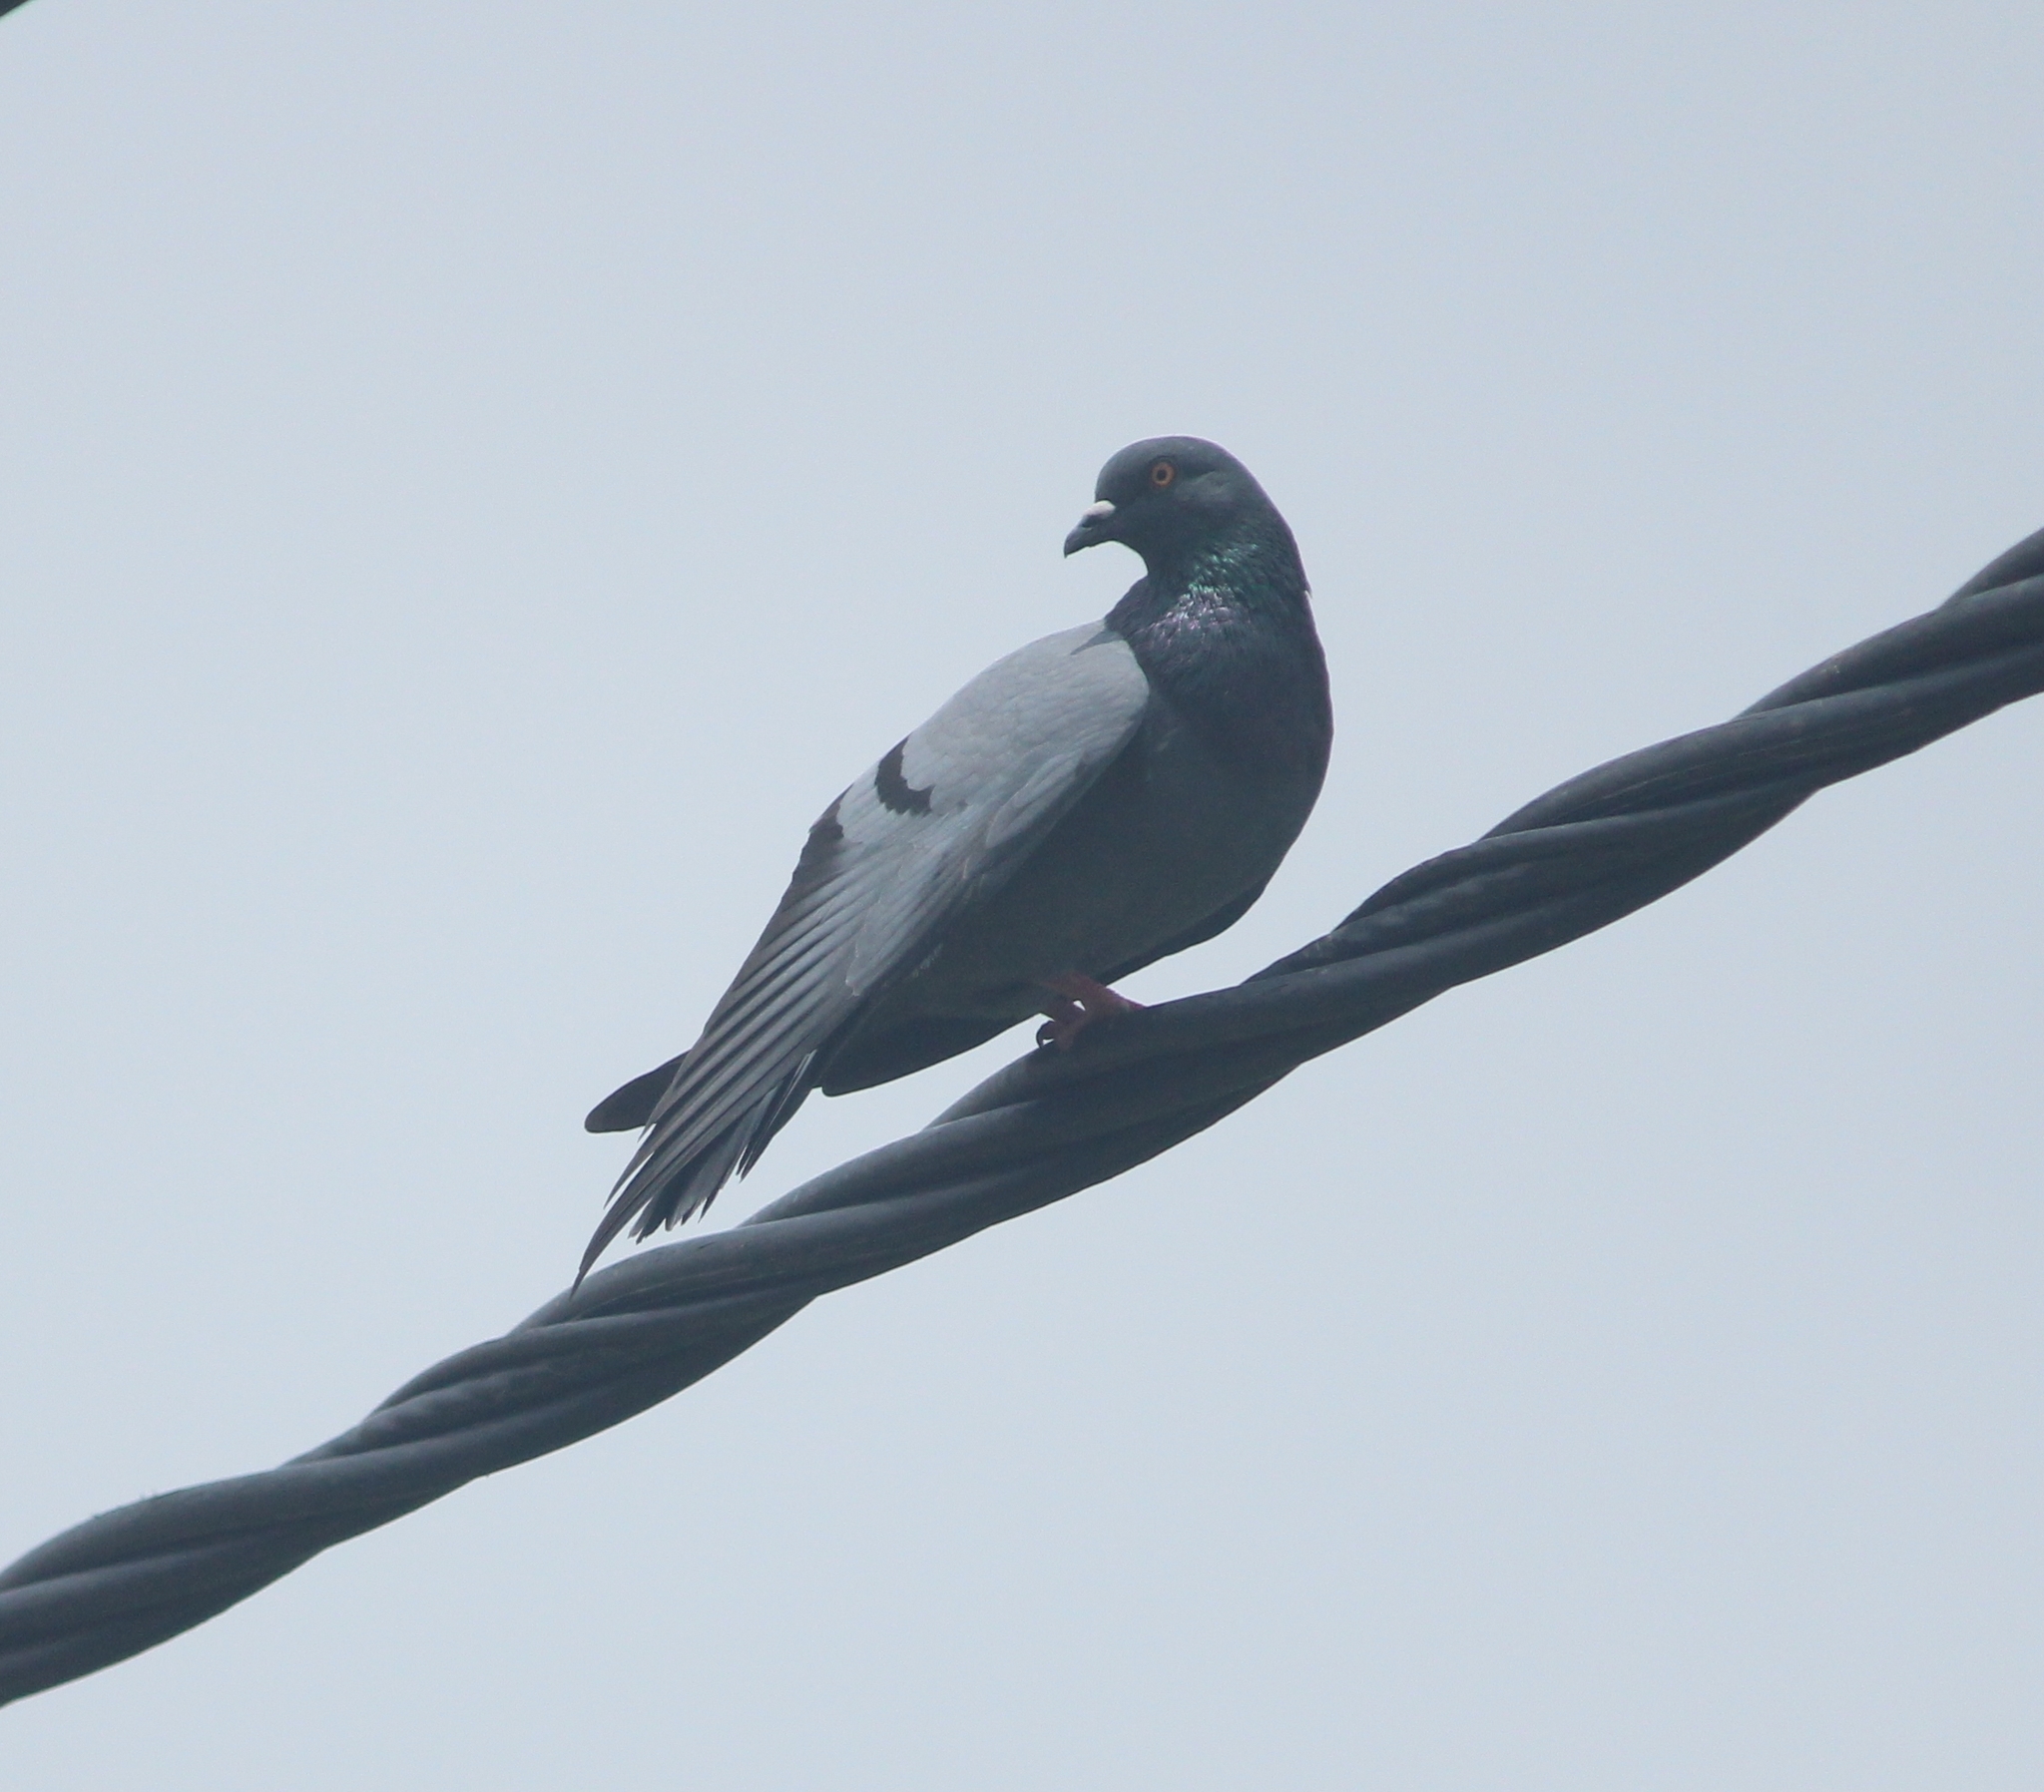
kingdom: Animalia
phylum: Chordata
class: Aves
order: Columbiformes
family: Columbidae
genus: Columba
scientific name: Columba livia
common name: Rock pigeon
